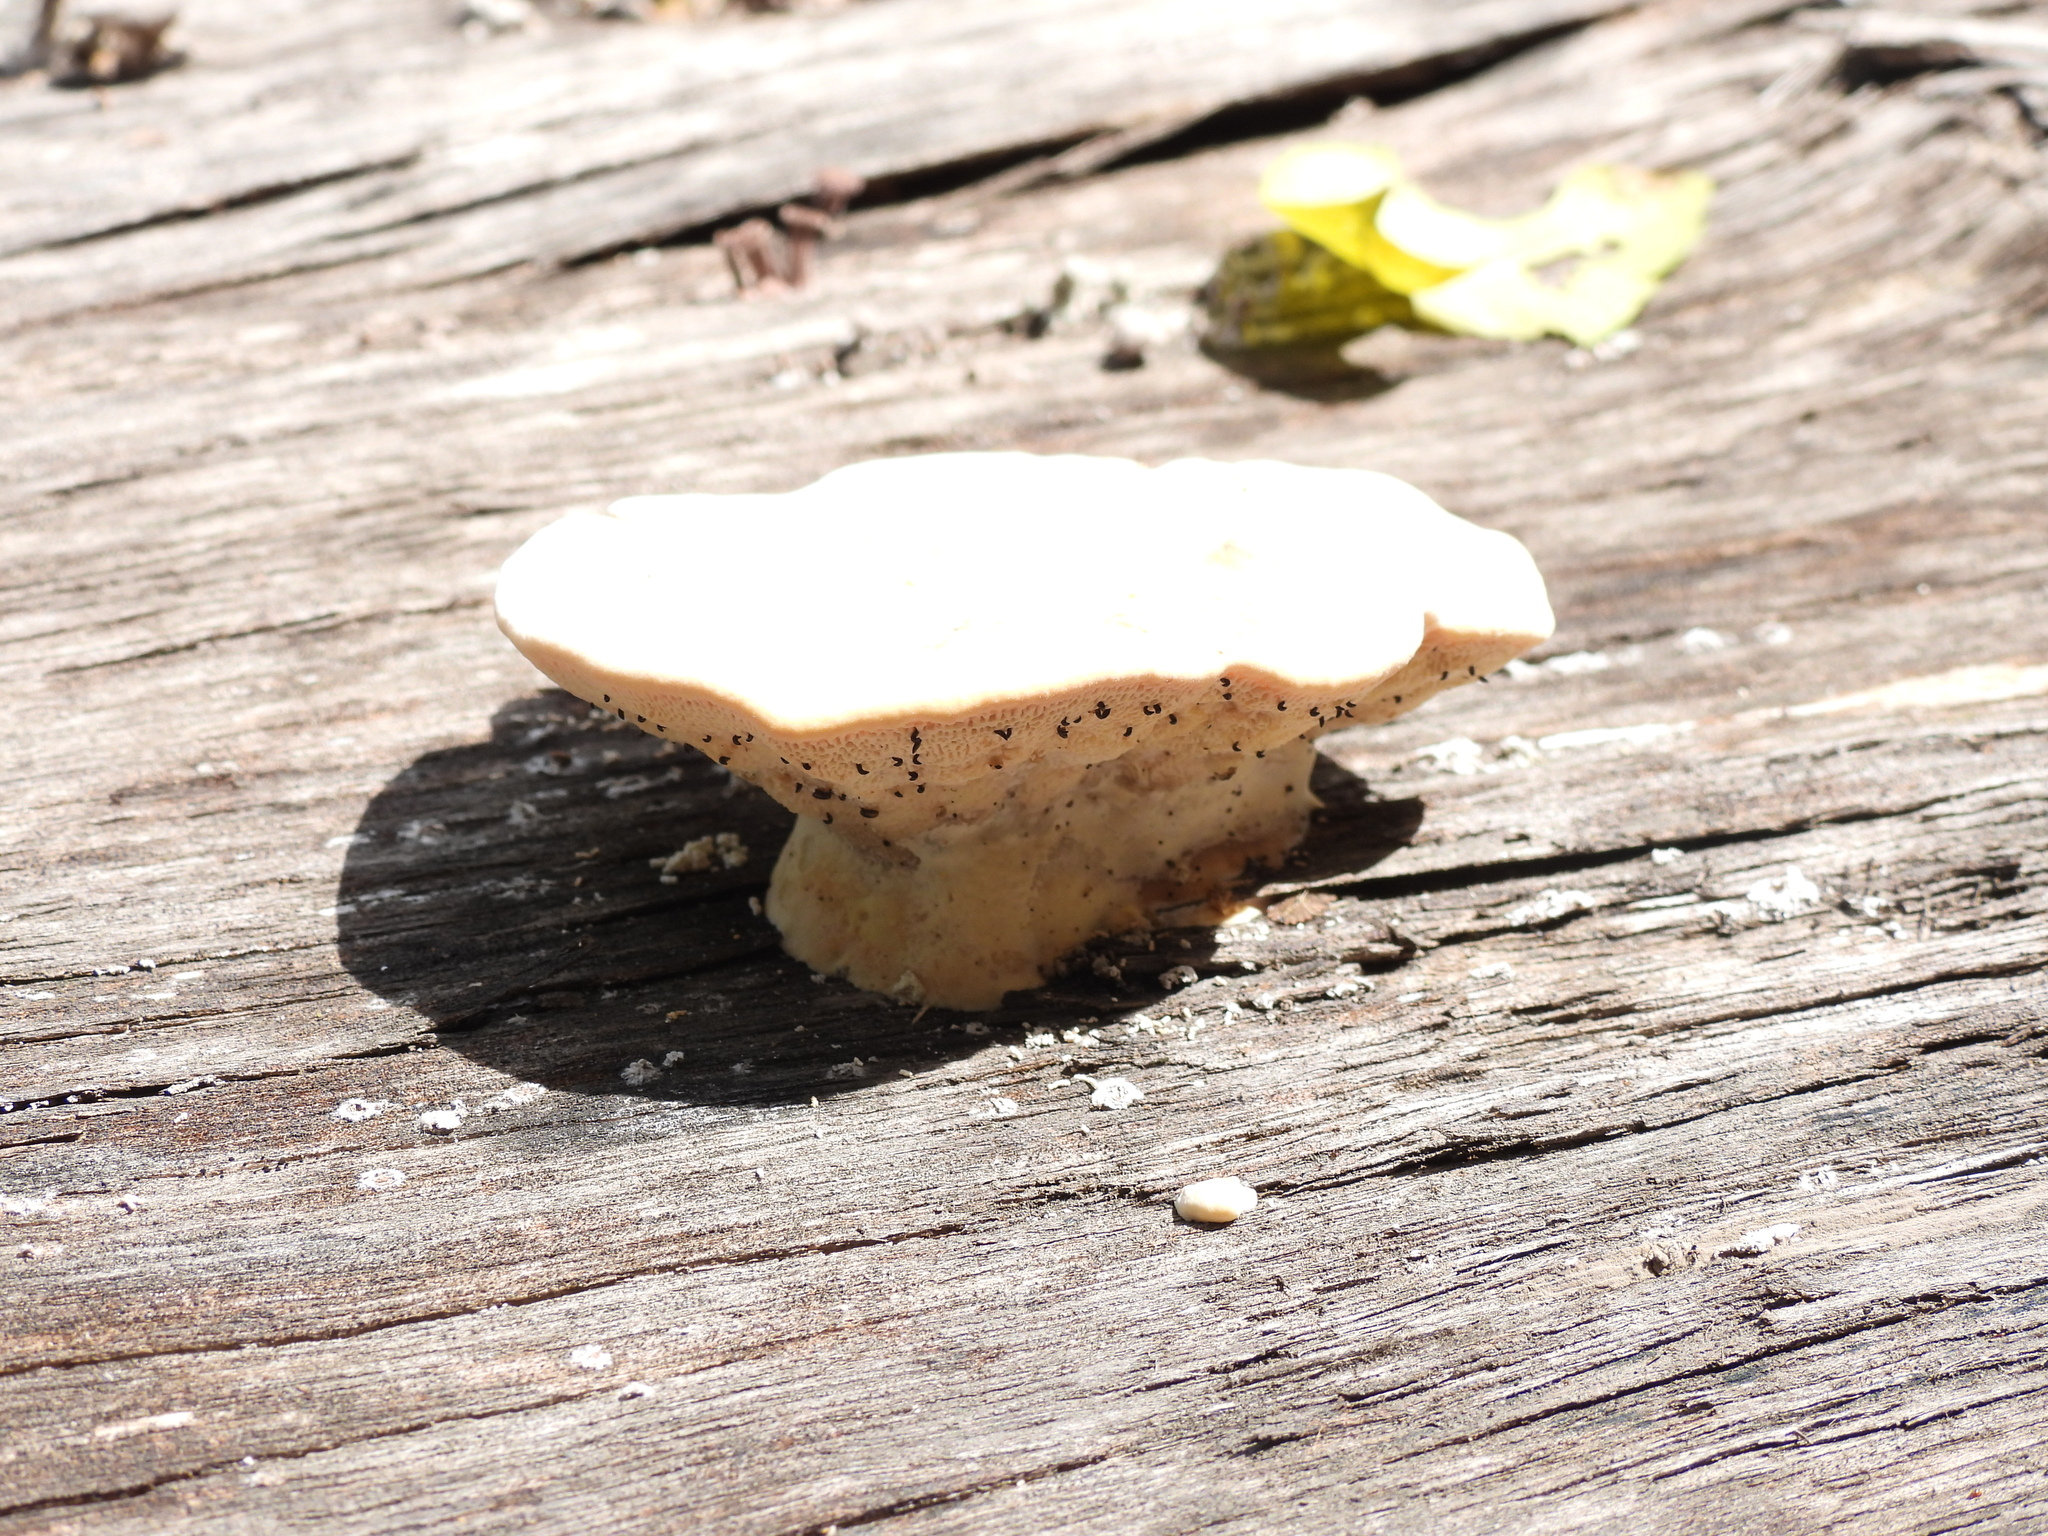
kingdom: Fungi
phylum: Basidiomycota
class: Agaricomycetes
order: Polyporales
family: Polyporaceae
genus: Trametes
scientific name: Trametes
